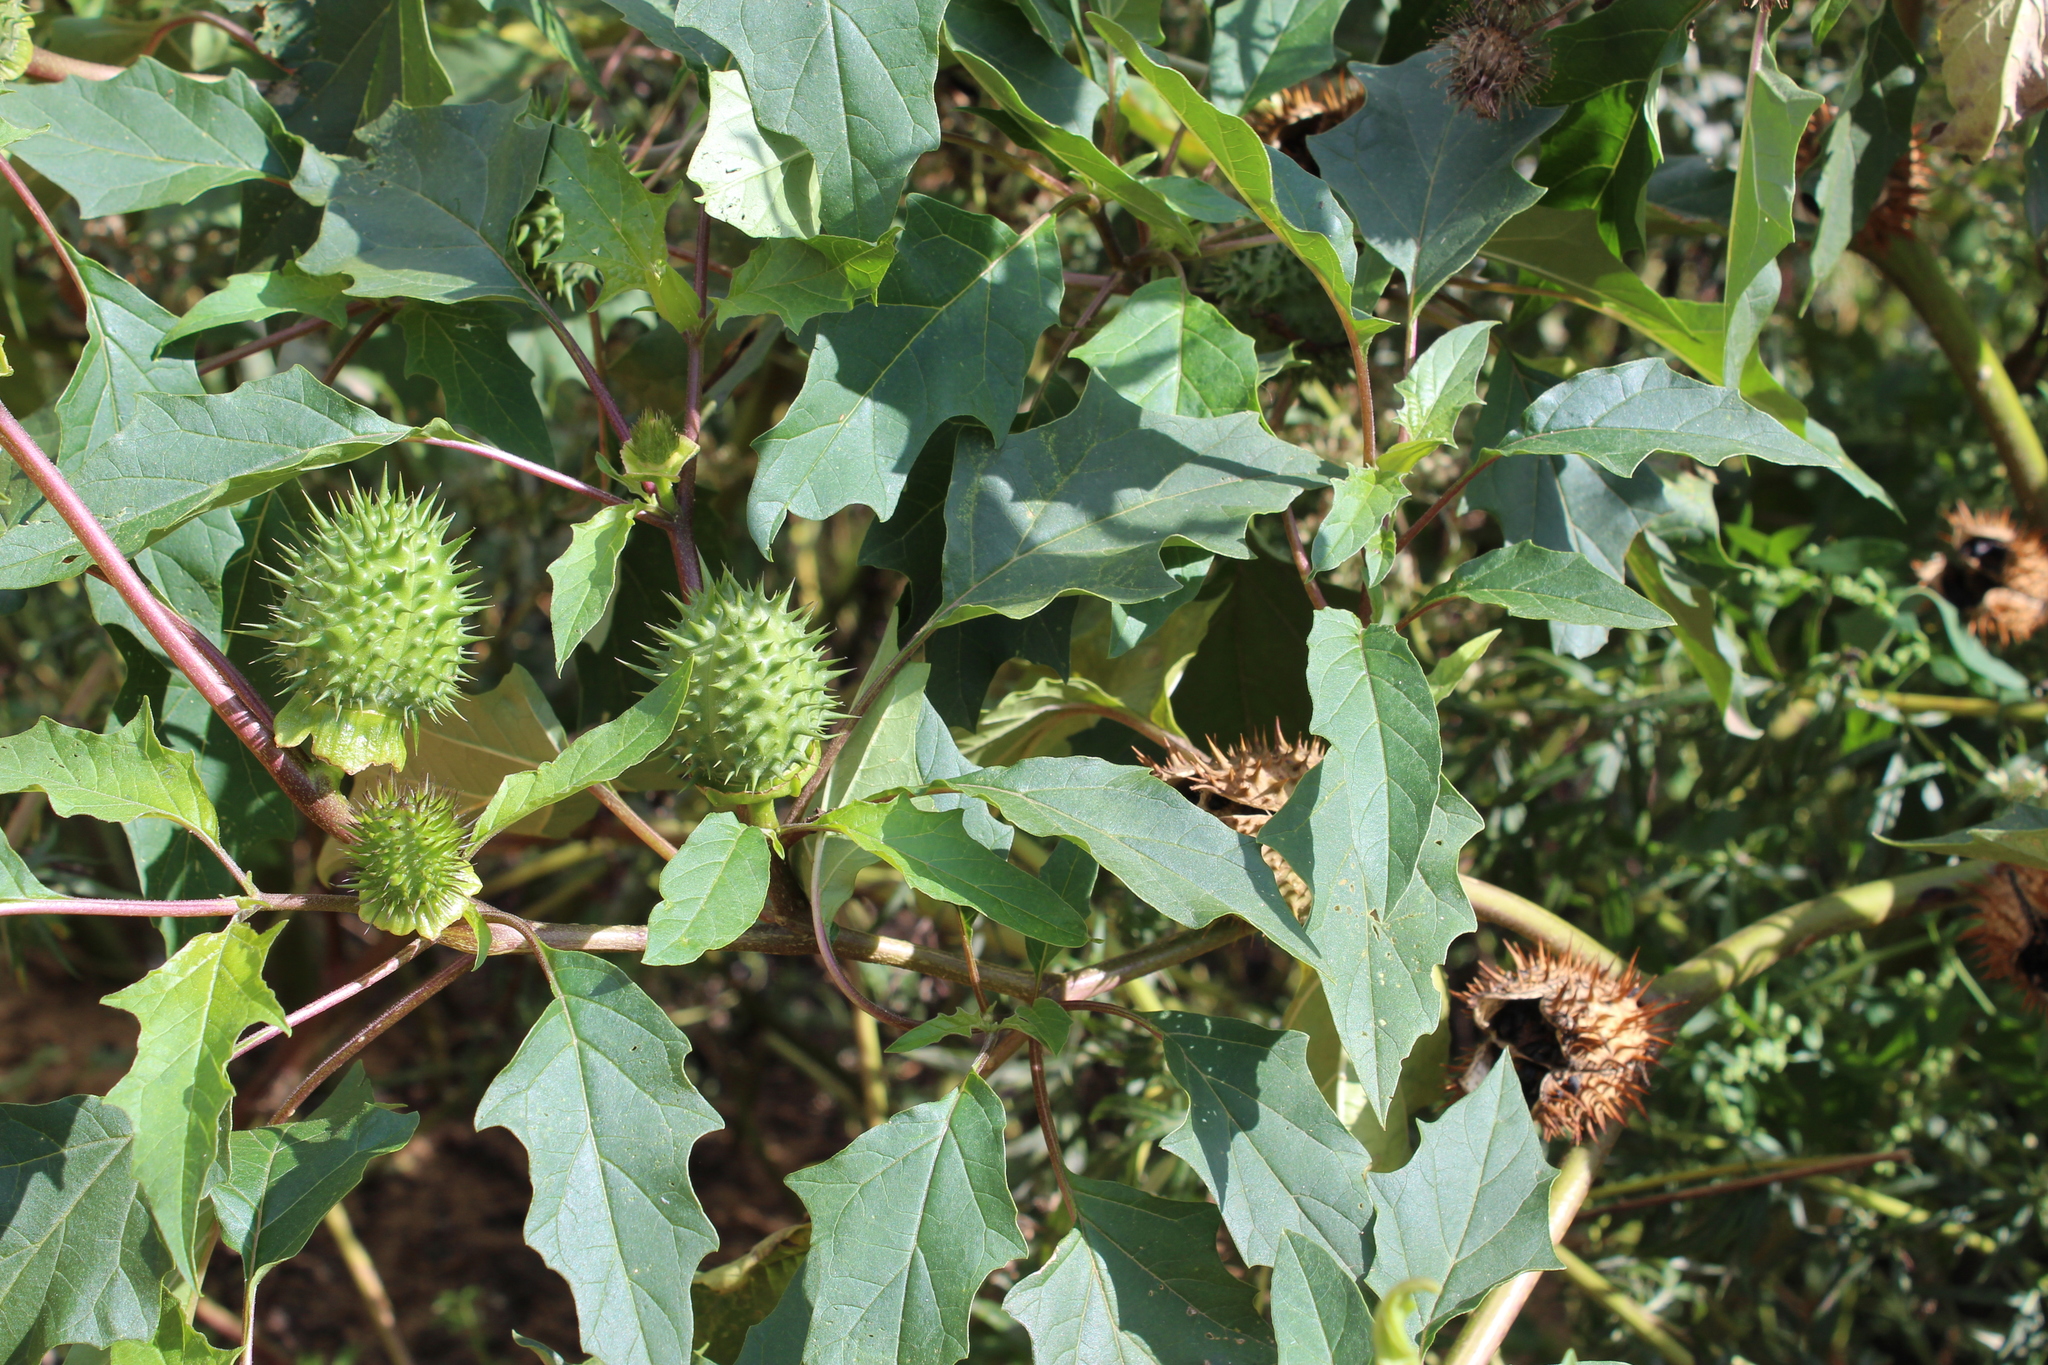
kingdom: Plantae
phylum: Tracheophyta
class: Magnoliopsida
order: Solanales
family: Solanaceae
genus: Datura
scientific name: Datura stramonium
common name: Thorn-apple
